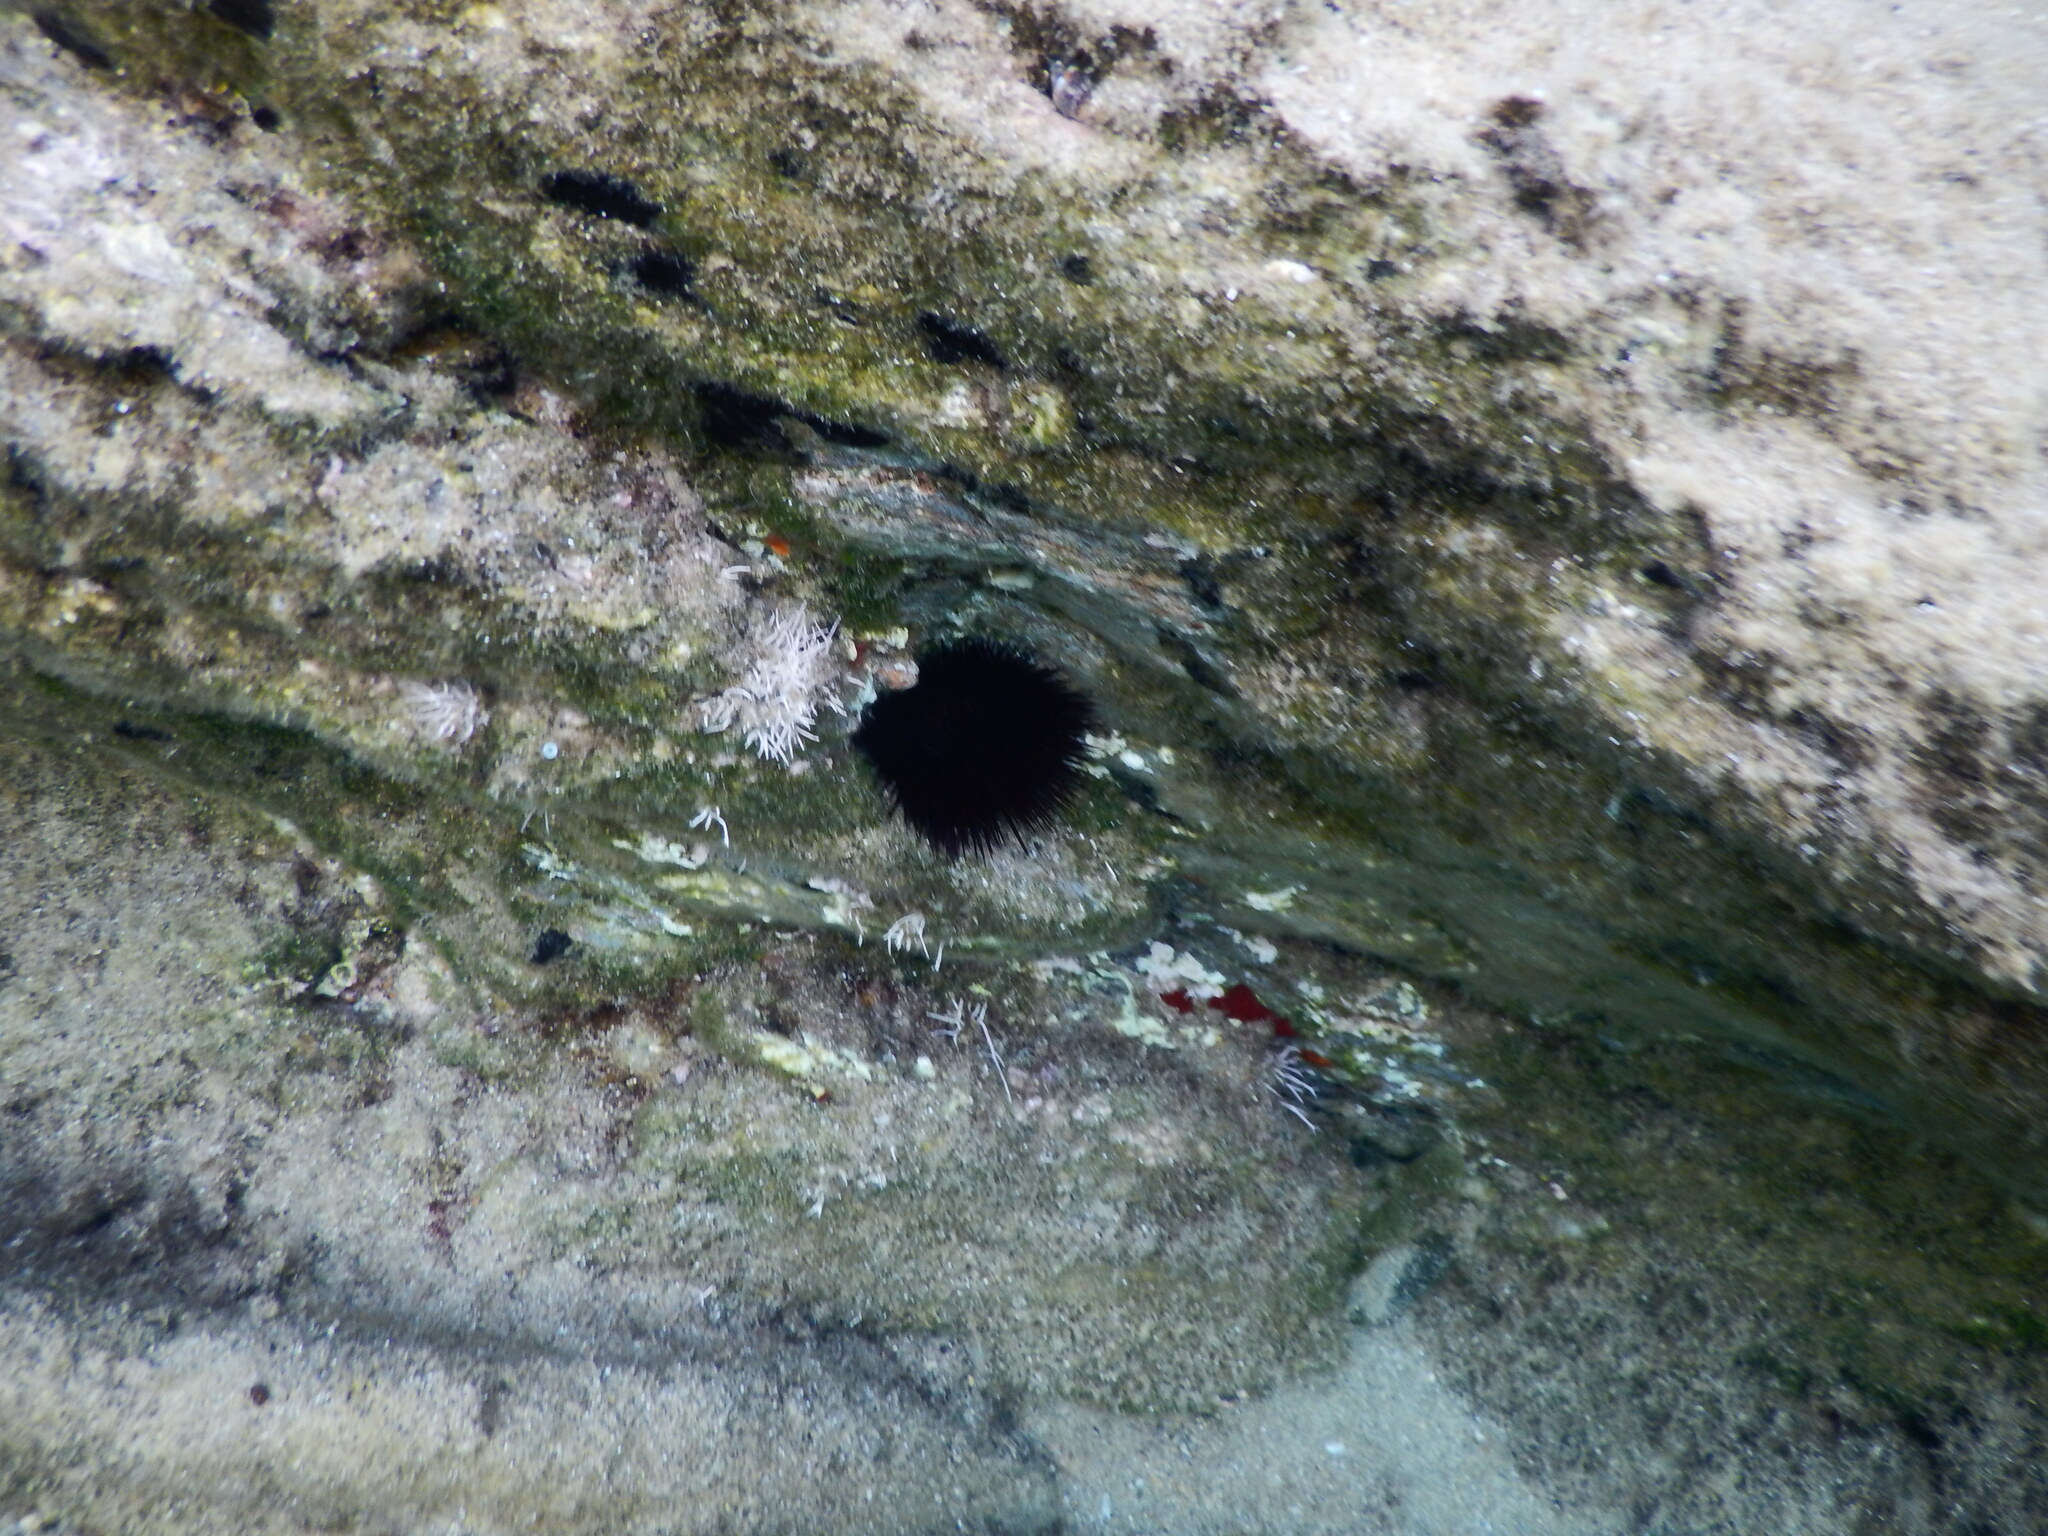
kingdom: Animalia
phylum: Echinodermata
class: Echinoidea
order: Arbacioida
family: Arbaciidae
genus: Arbacia
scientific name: Arbacia lixula
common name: Black sea urchin
